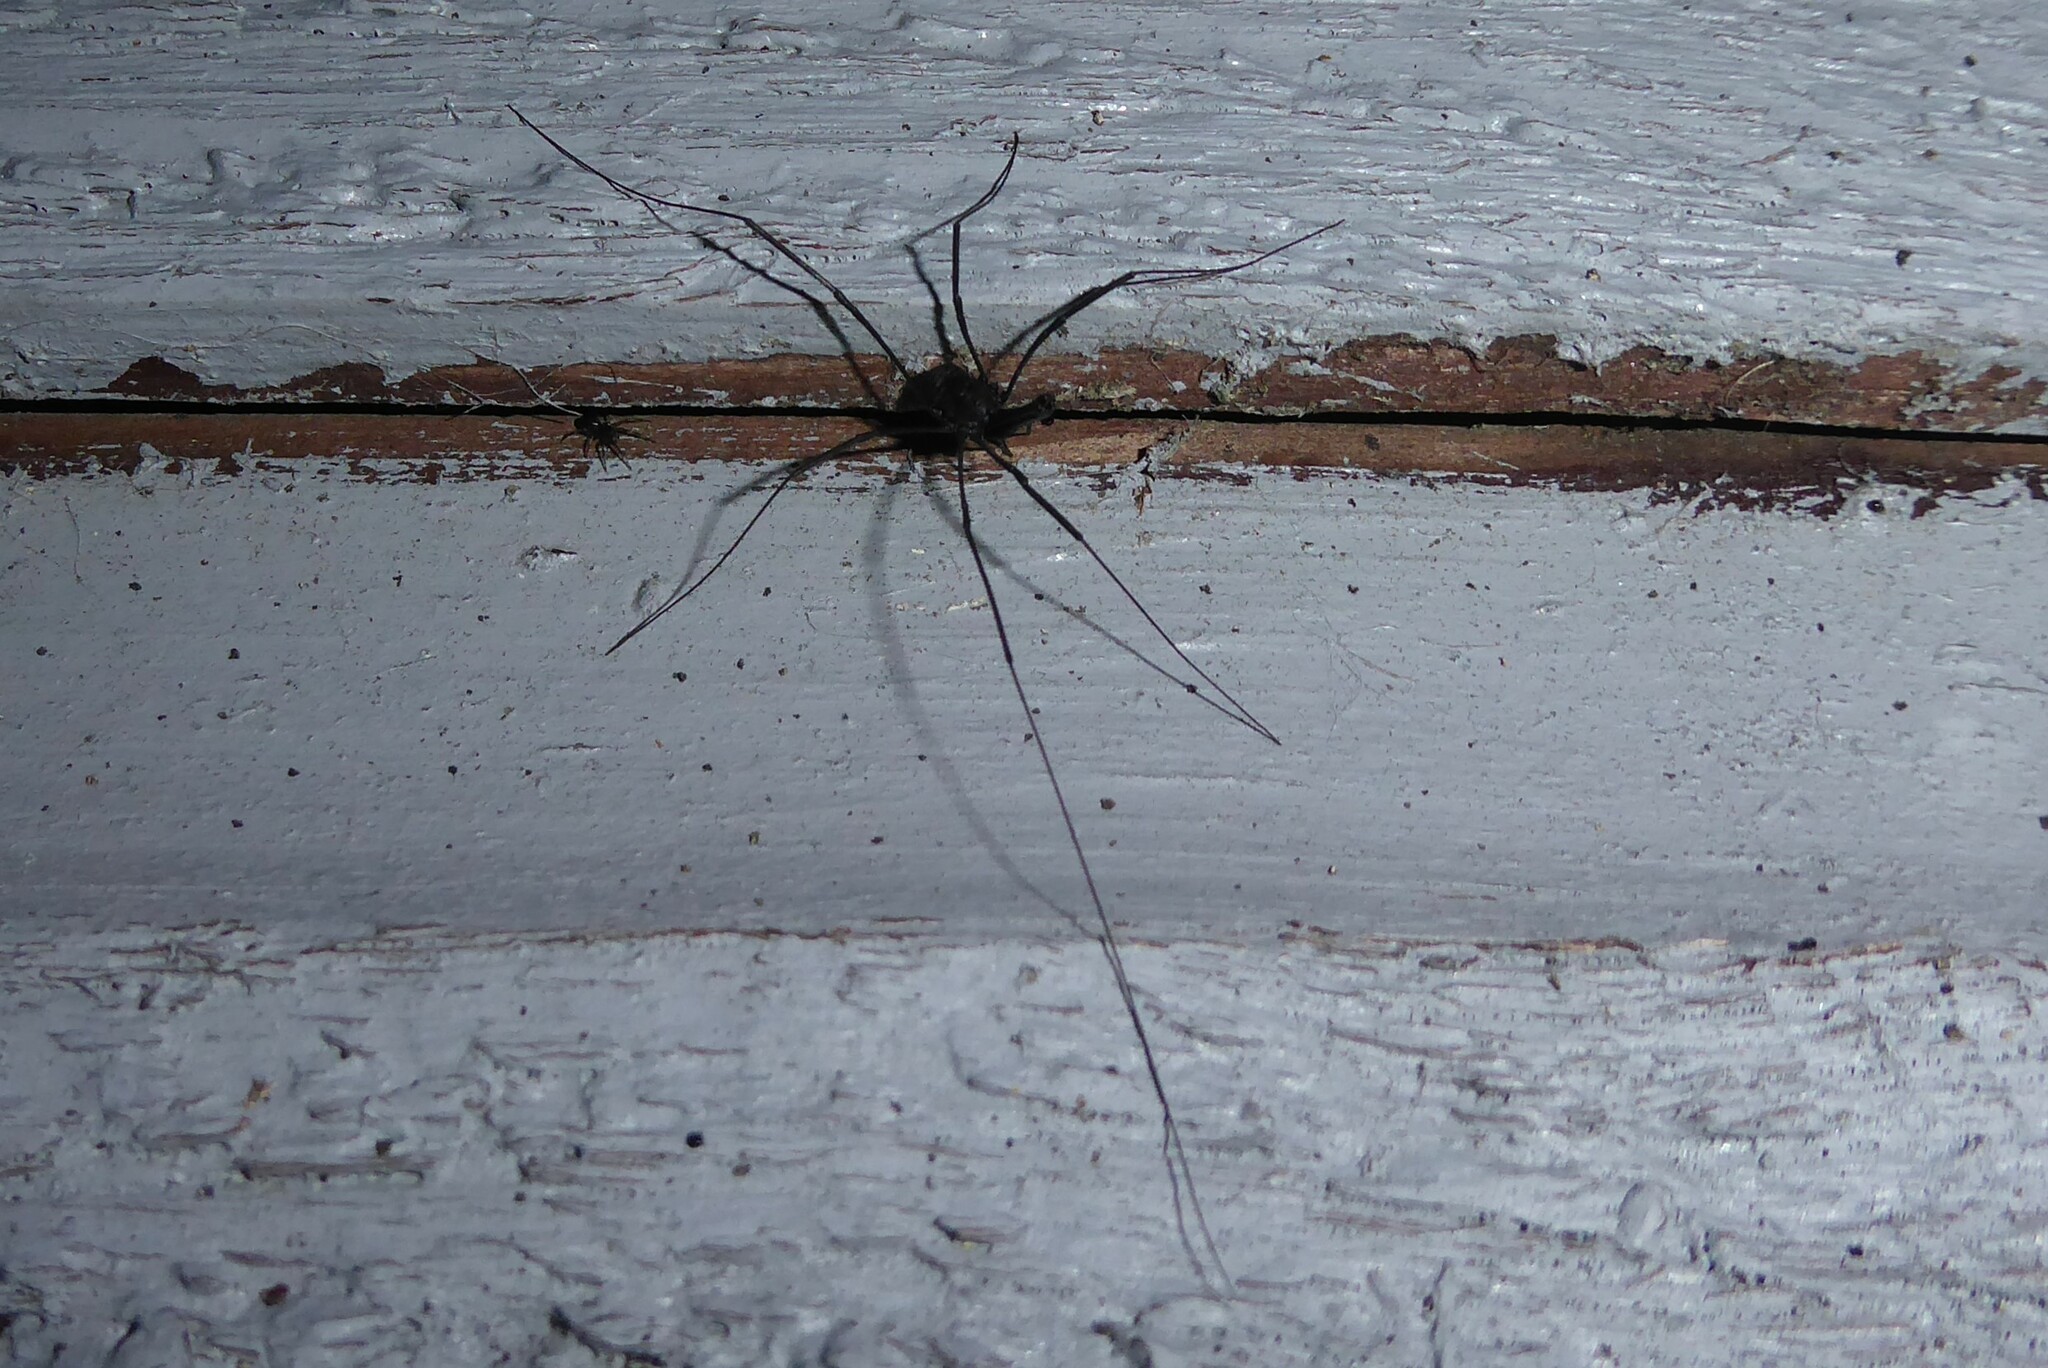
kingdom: Animalia
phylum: Arthropoda
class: Arachnida
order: Opiliones
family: Neopilionidae
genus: Pantopsalis
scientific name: Pantopsalis albipalpis
